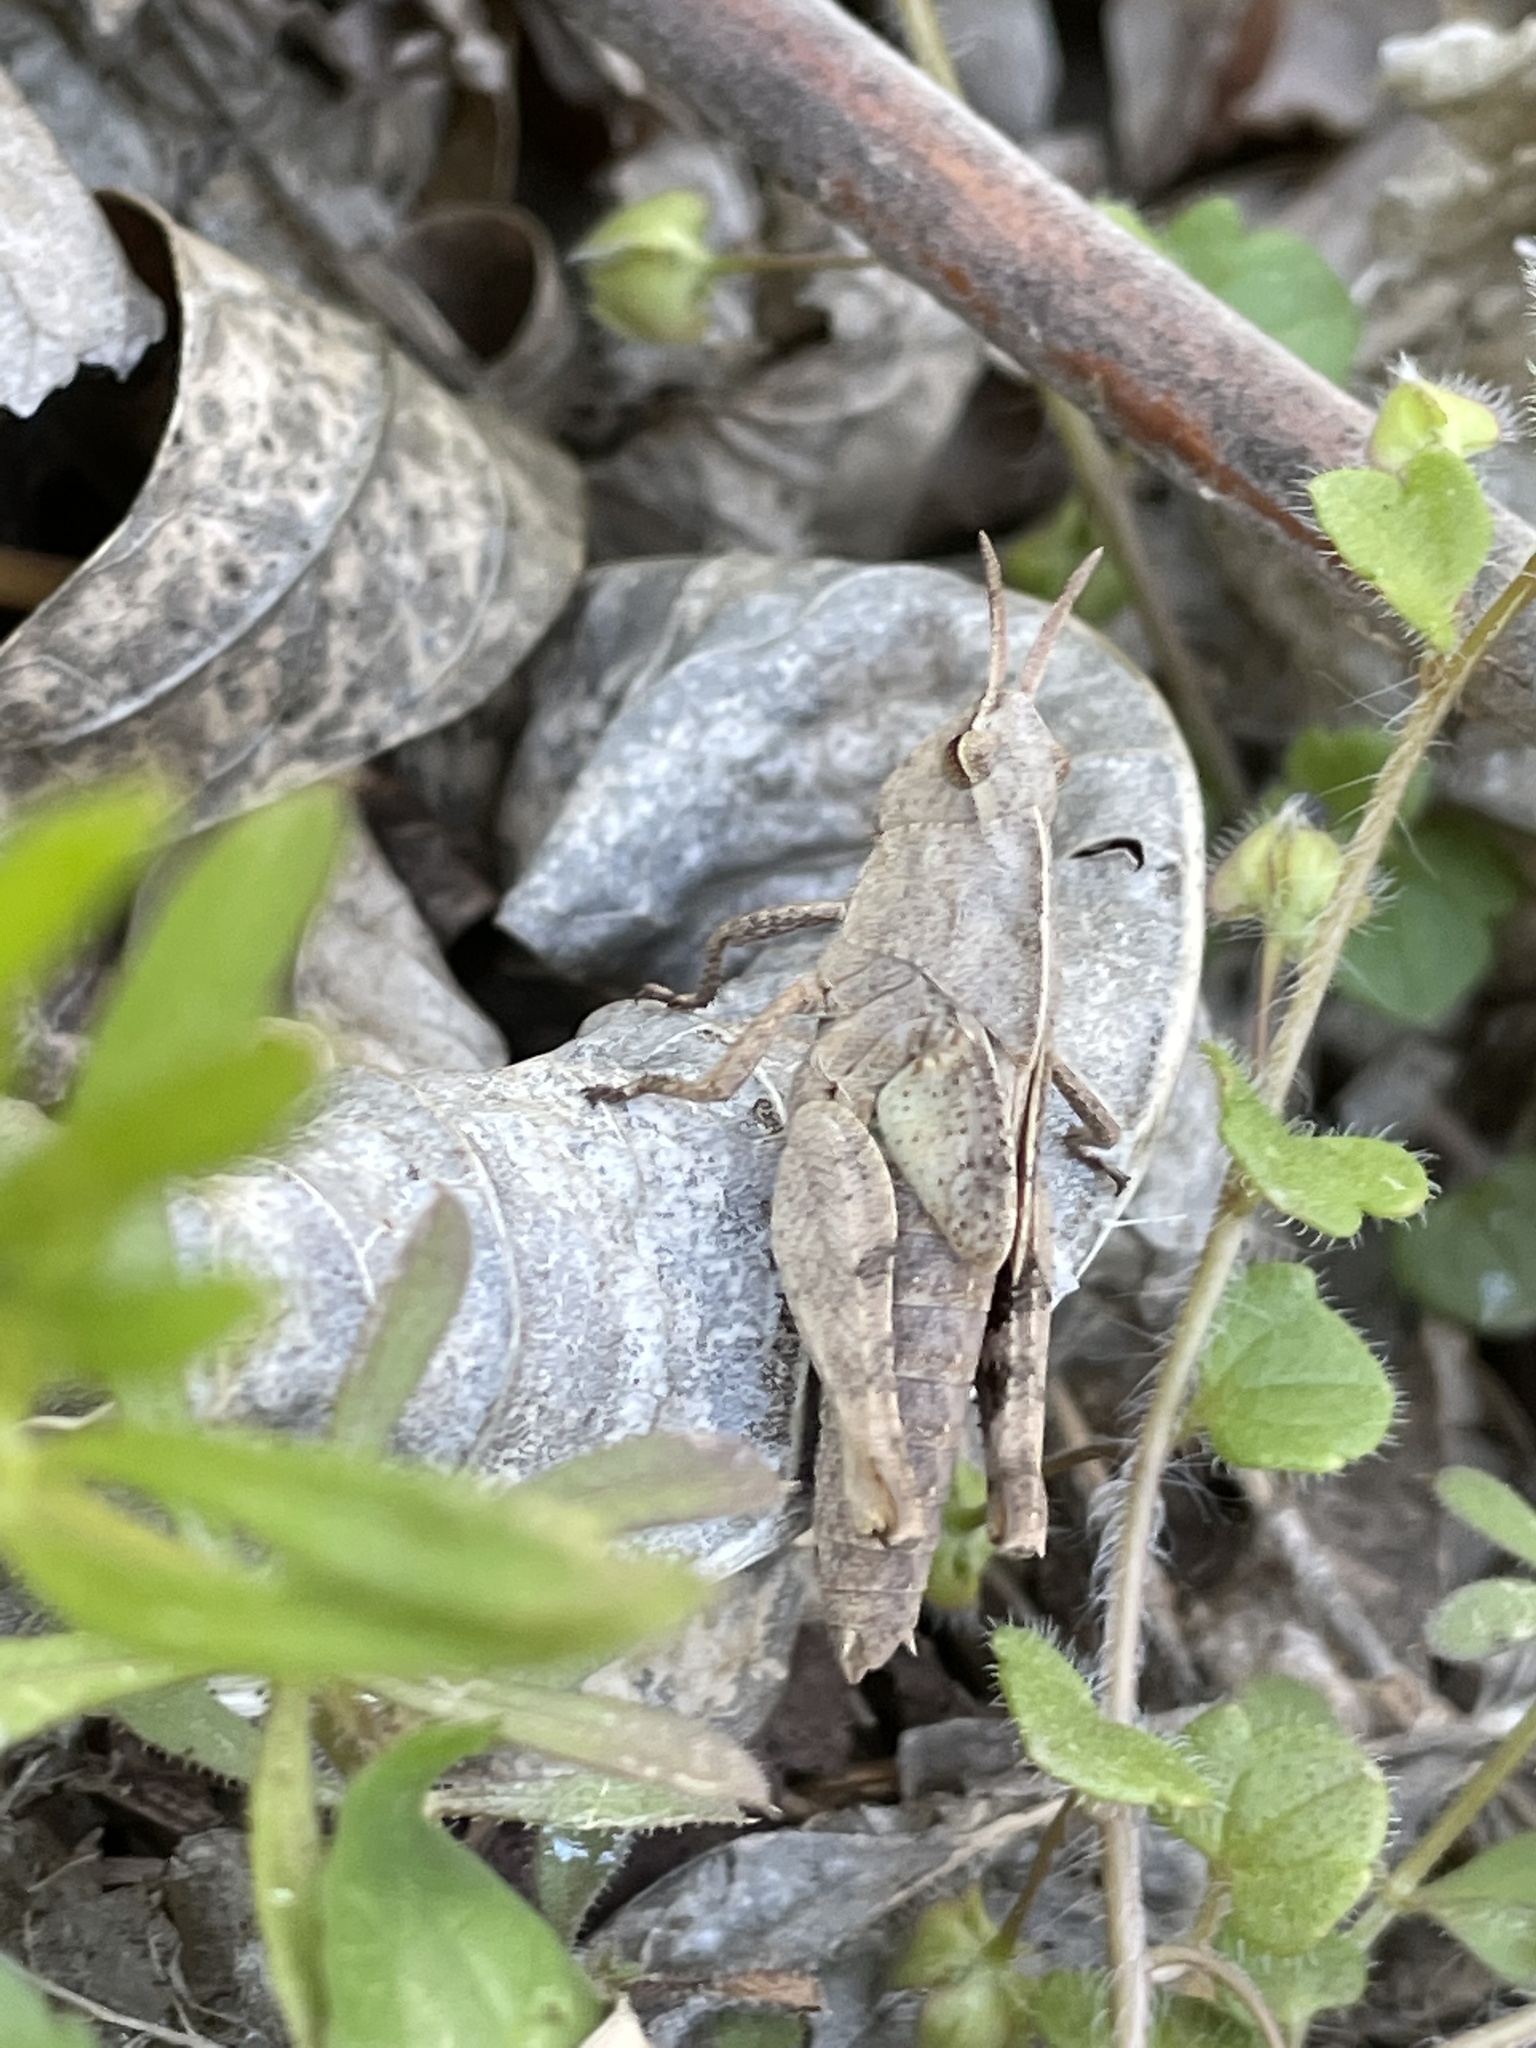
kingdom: Animalia
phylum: Arthropoda
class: Insecta
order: Orthoptera
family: Acrididae
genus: Chortophaga
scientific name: Chortophaga viridifasciata
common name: Green-striped grasshopper
